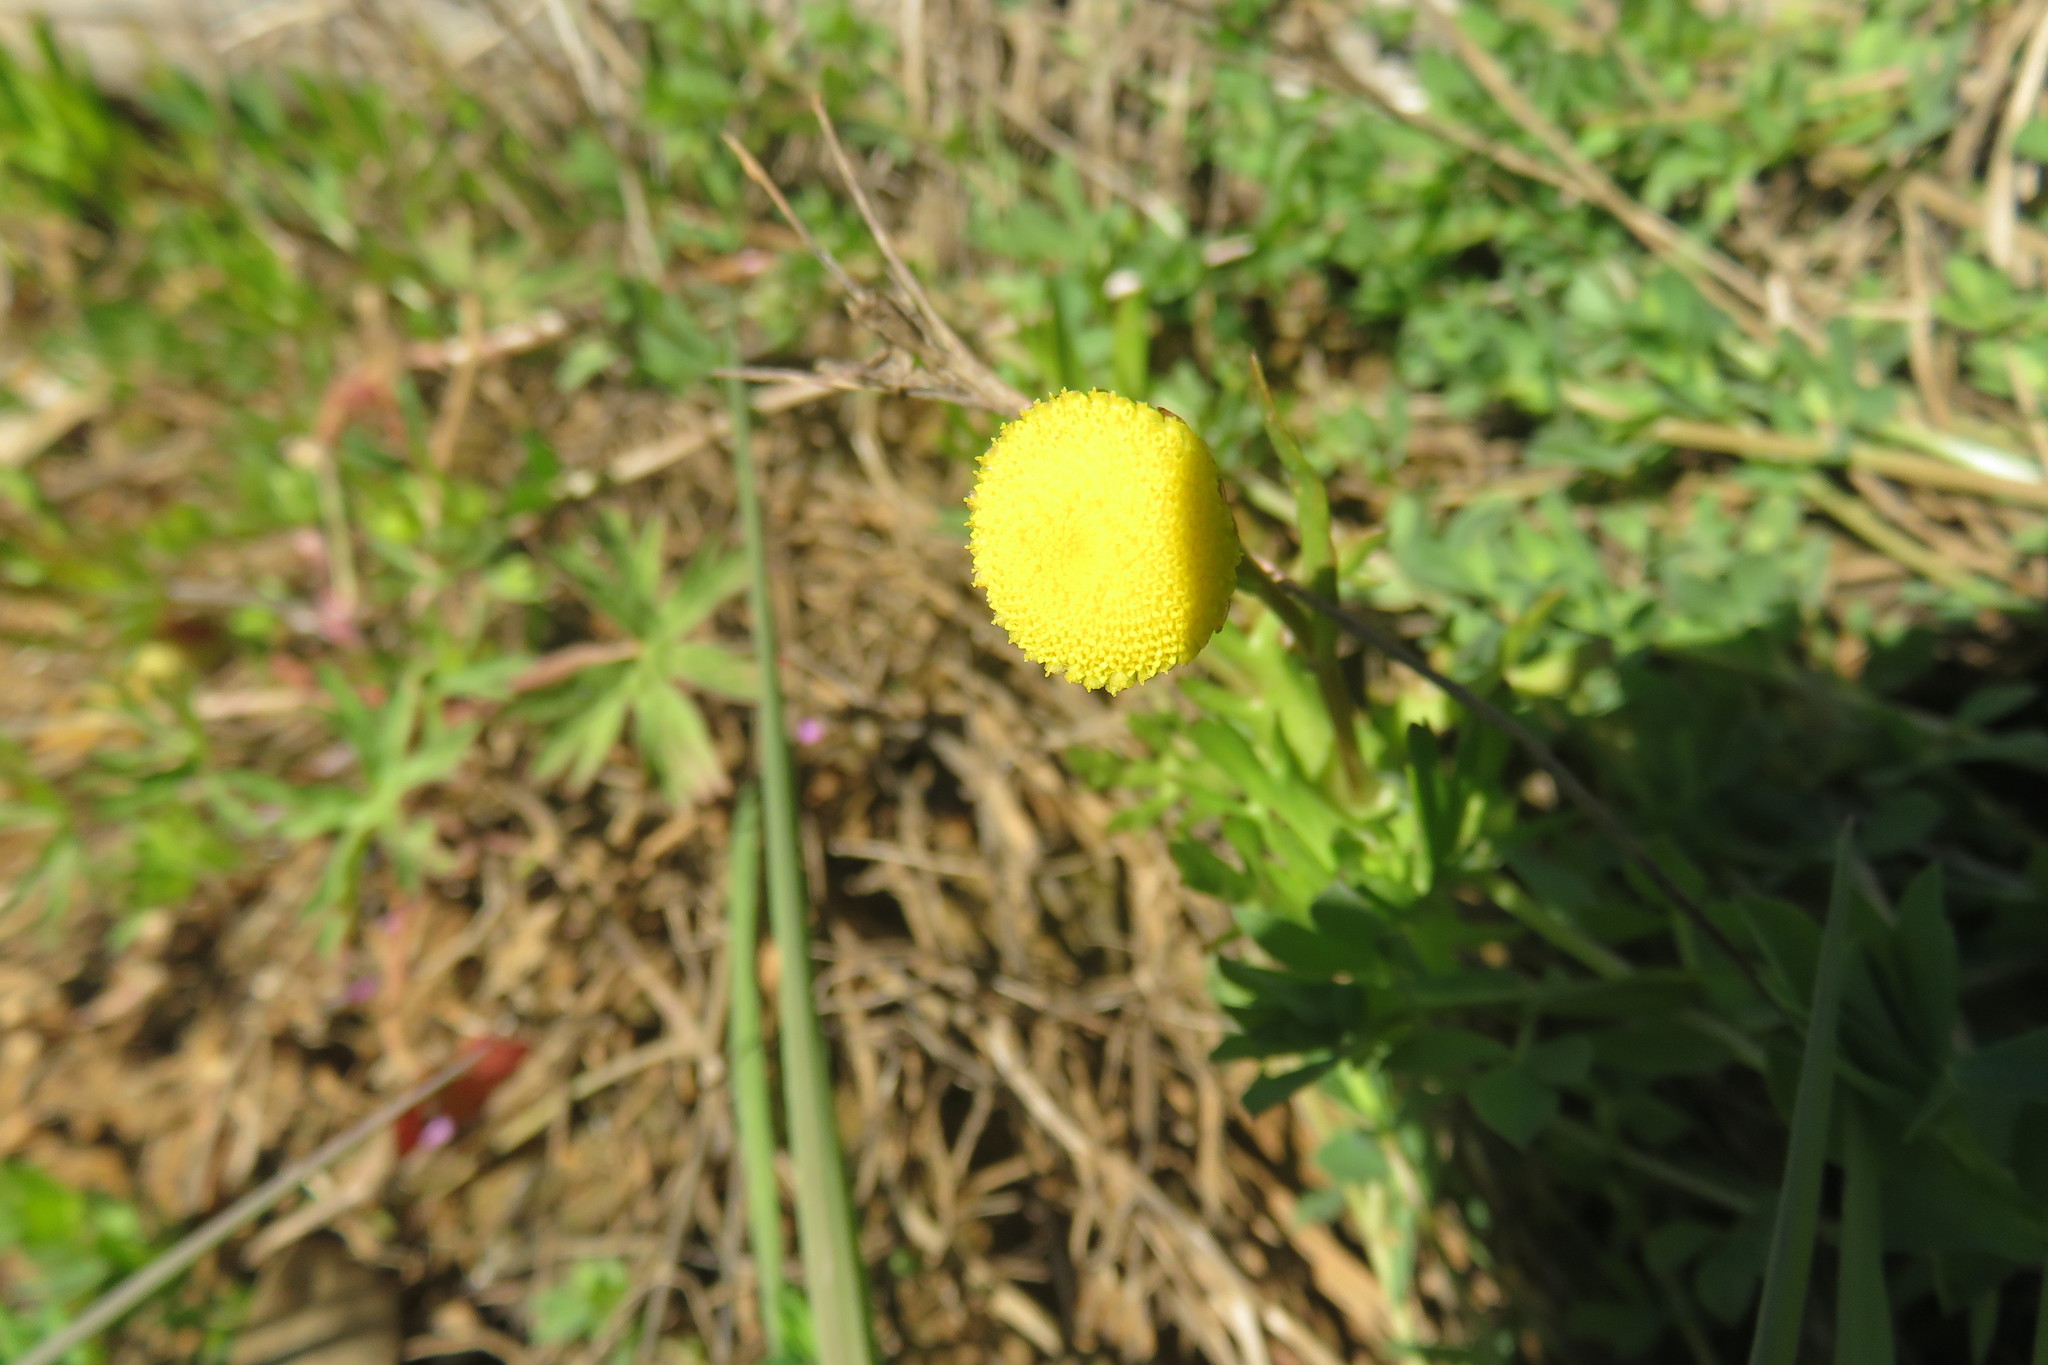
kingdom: Plantae
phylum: Tracheophyta
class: Magnoliopsida
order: Asterales
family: Asteraceae
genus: Cotula
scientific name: Cotula coronopifolia
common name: Buttonweed
